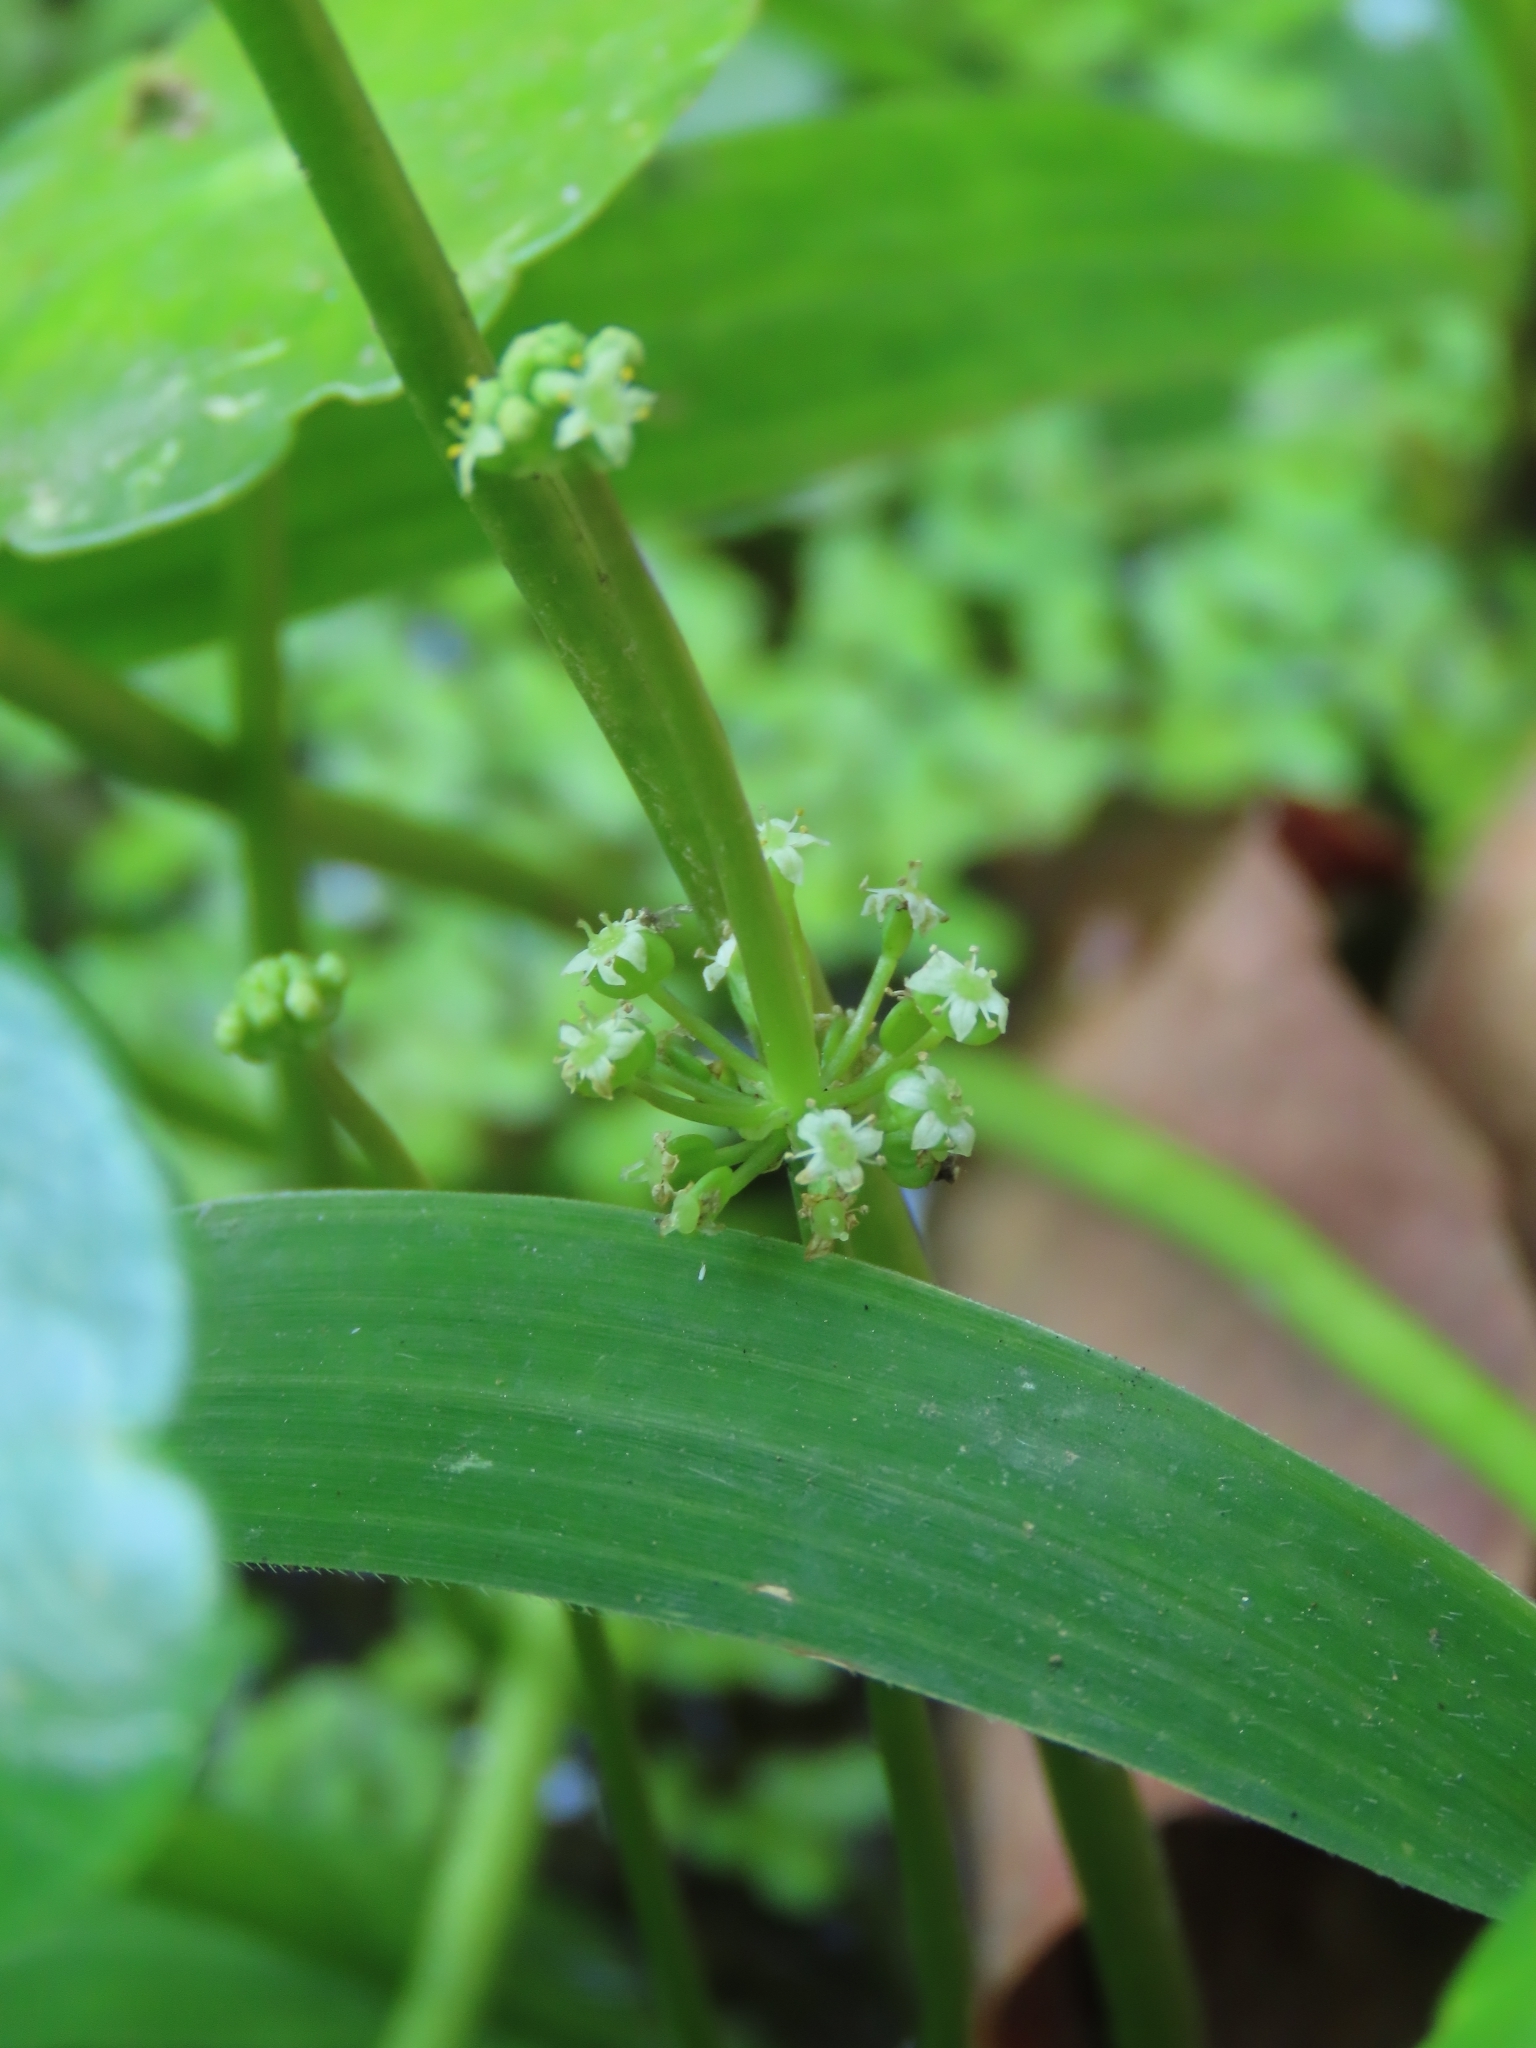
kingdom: Plantae
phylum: Tracheophyta
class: Magnoliopsida
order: Apiales
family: Araliaceae
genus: Hydrocotyle
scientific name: Hydrocotyle verticillata
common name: Whorled marshpennywort
